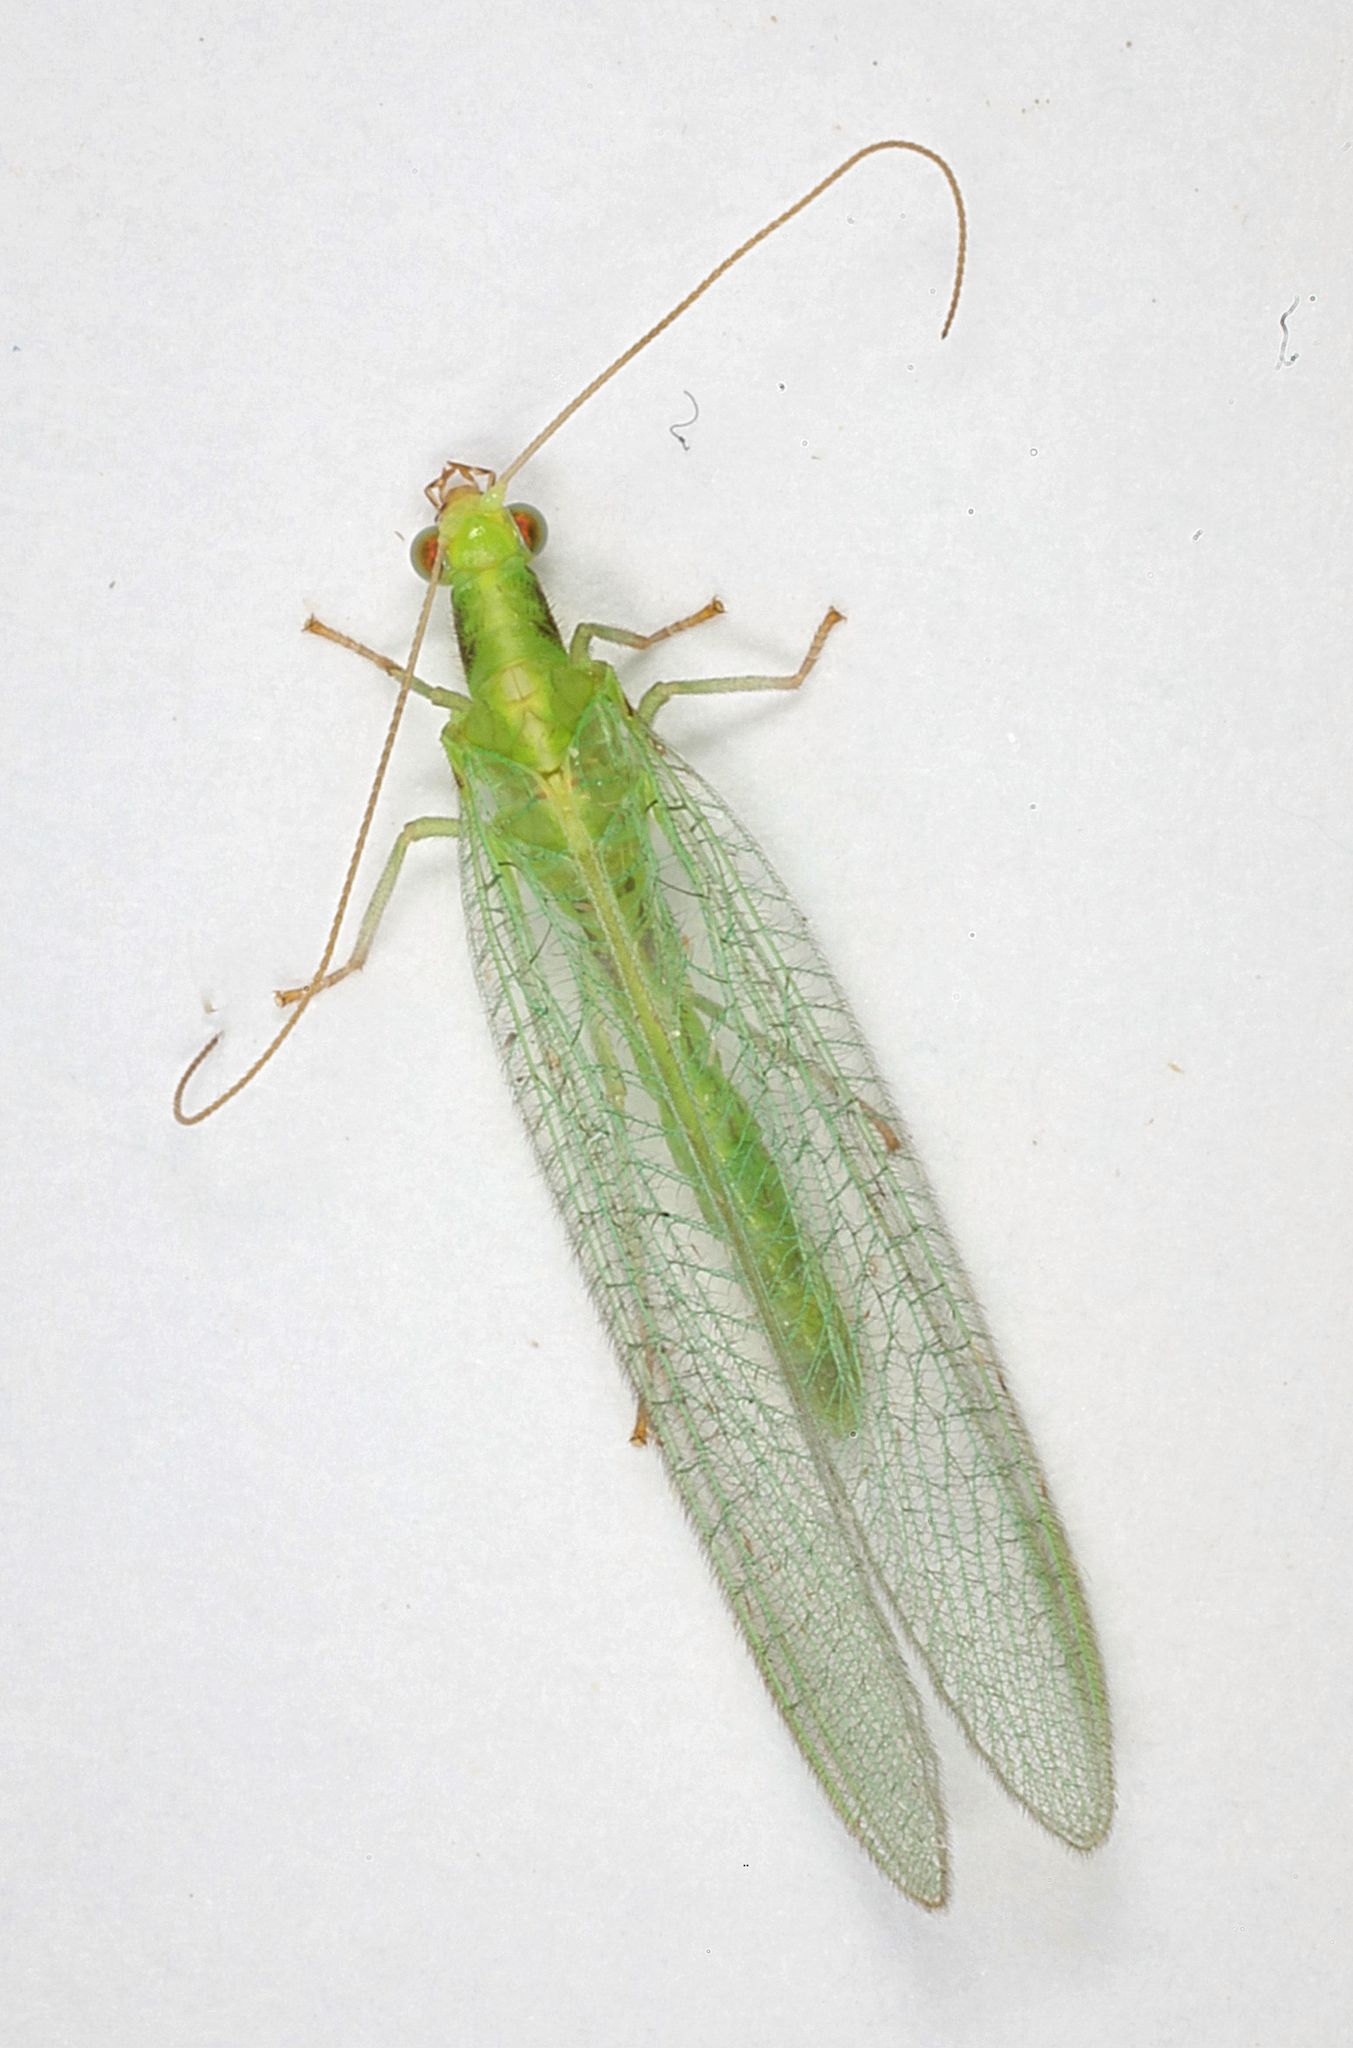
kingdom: Animalia
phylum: Arthropoda
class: Insecta
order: Neuroptera
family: Chrysopidae
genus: Chrysoperla
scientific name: Chrysoperla
